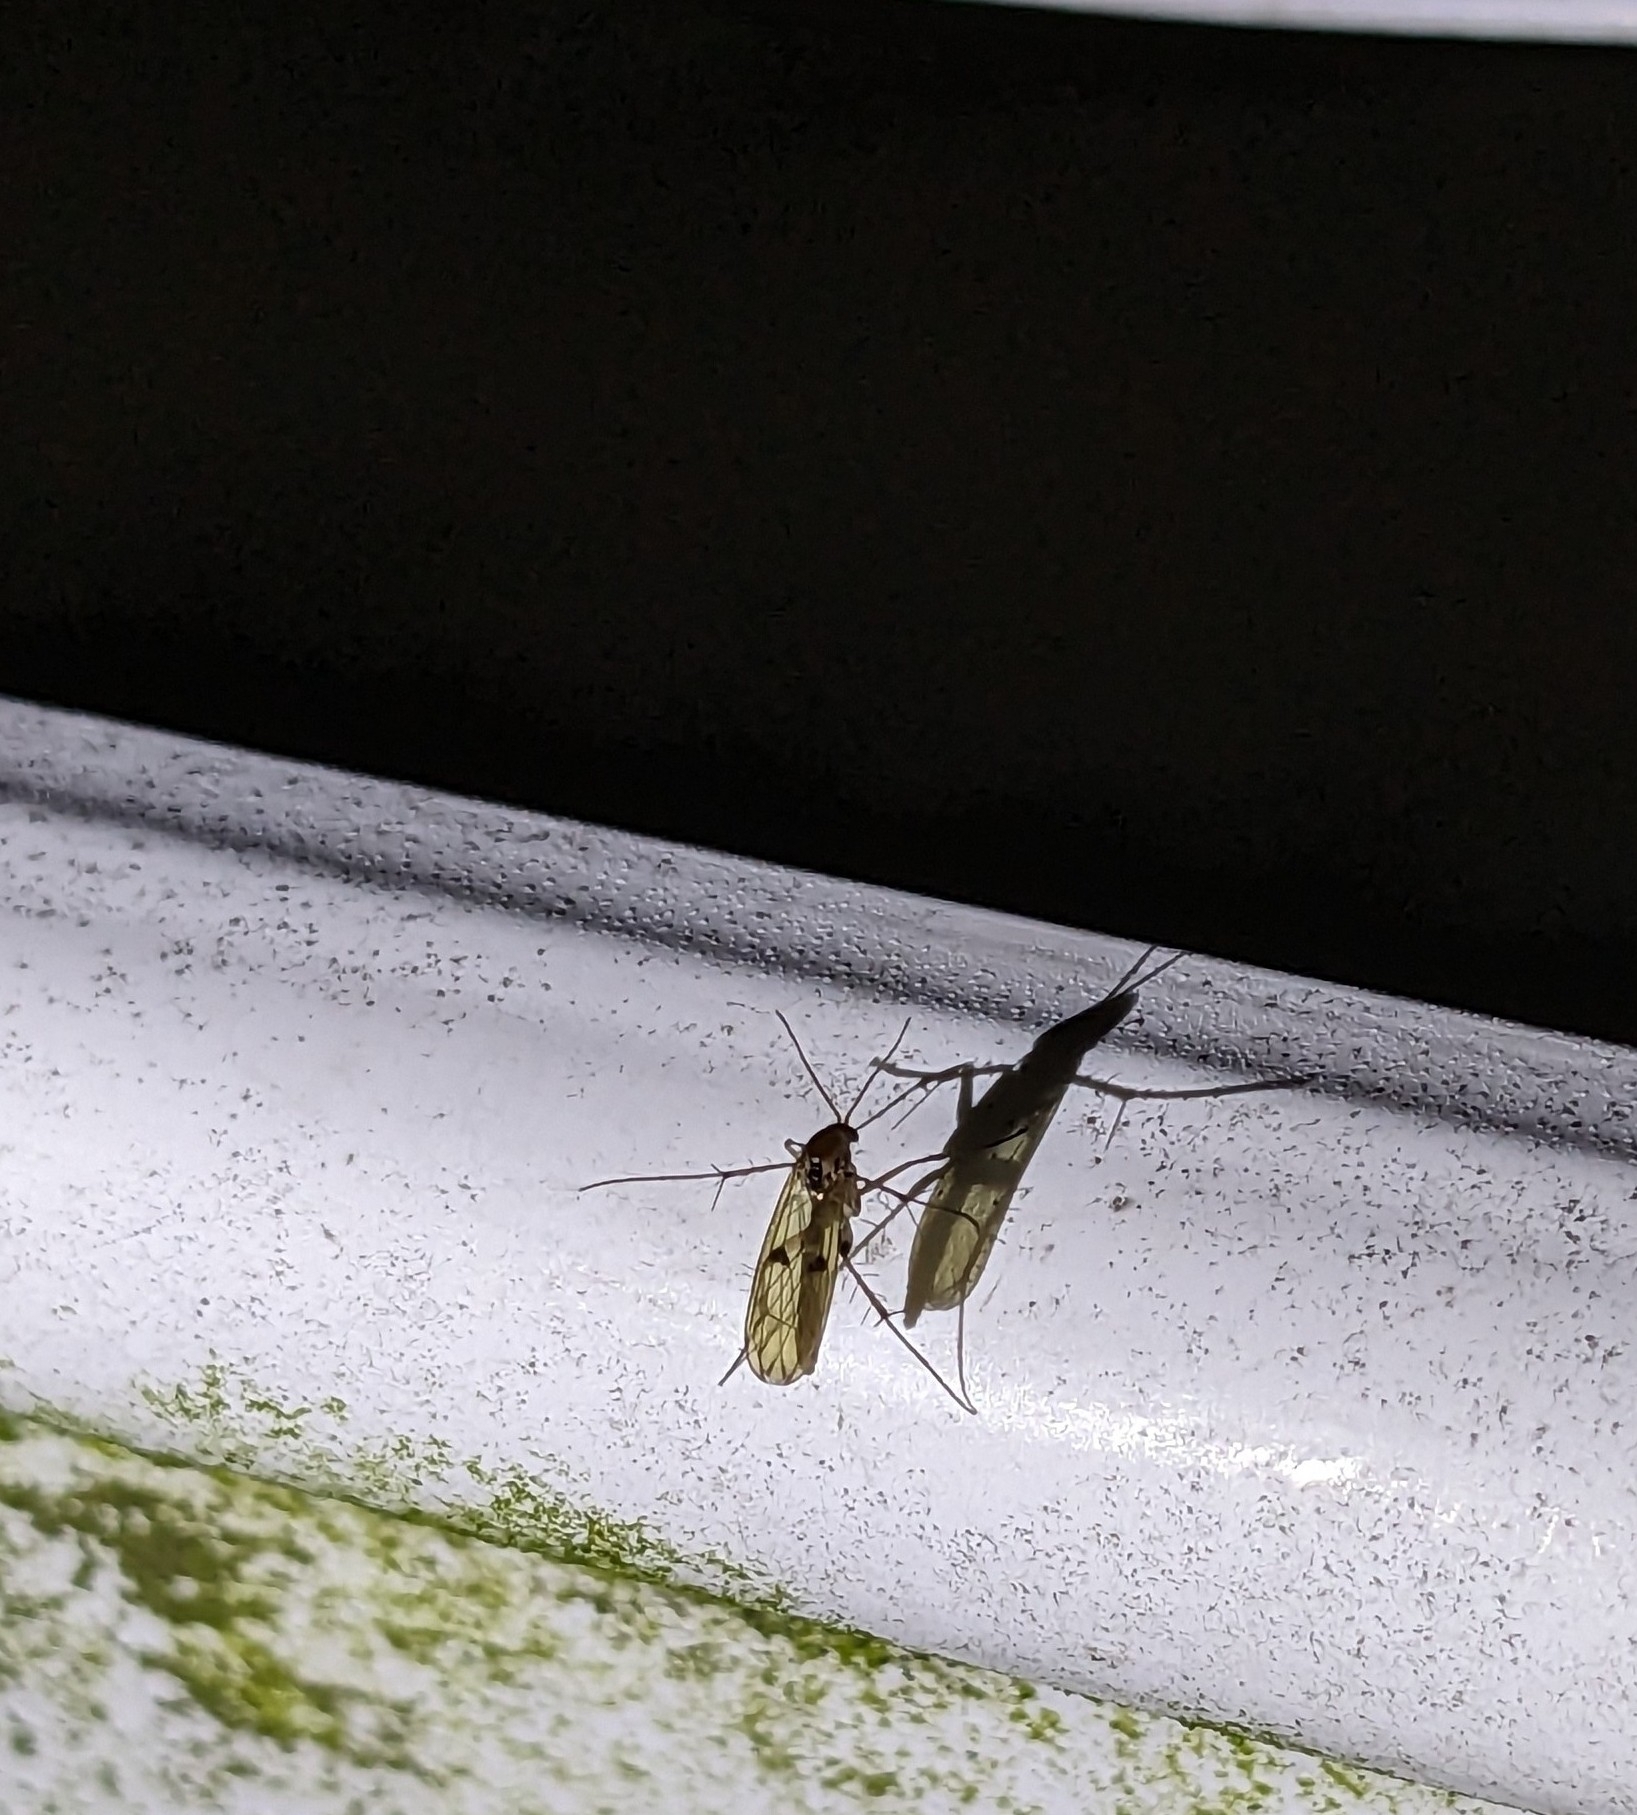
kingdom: Animalia
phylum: Arthropoda
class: Insecta
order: Diptera
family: Mycetophilidae
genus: Mycetophila
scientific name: Mycetophila marginepunctata
